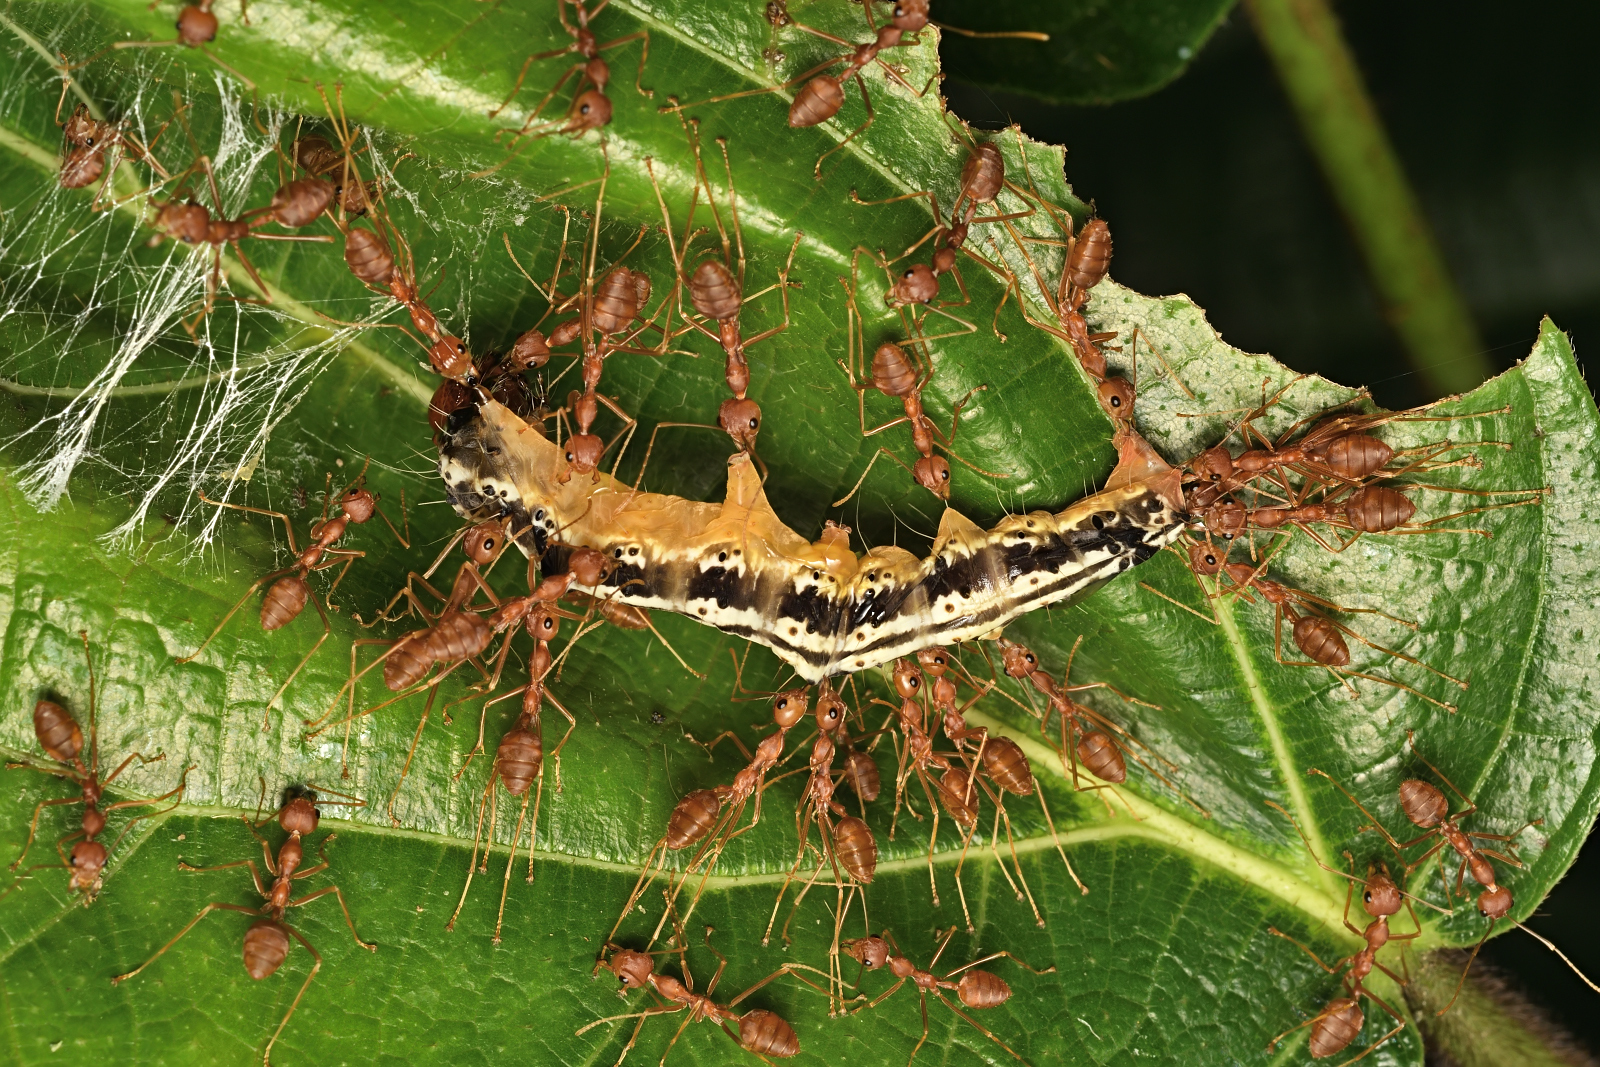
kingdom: Animalia
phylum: Arthropoda
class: Insecta
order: Hymenoptera
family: Formicidae
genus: Oecophylla
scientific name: Oecophylla smaragdina
